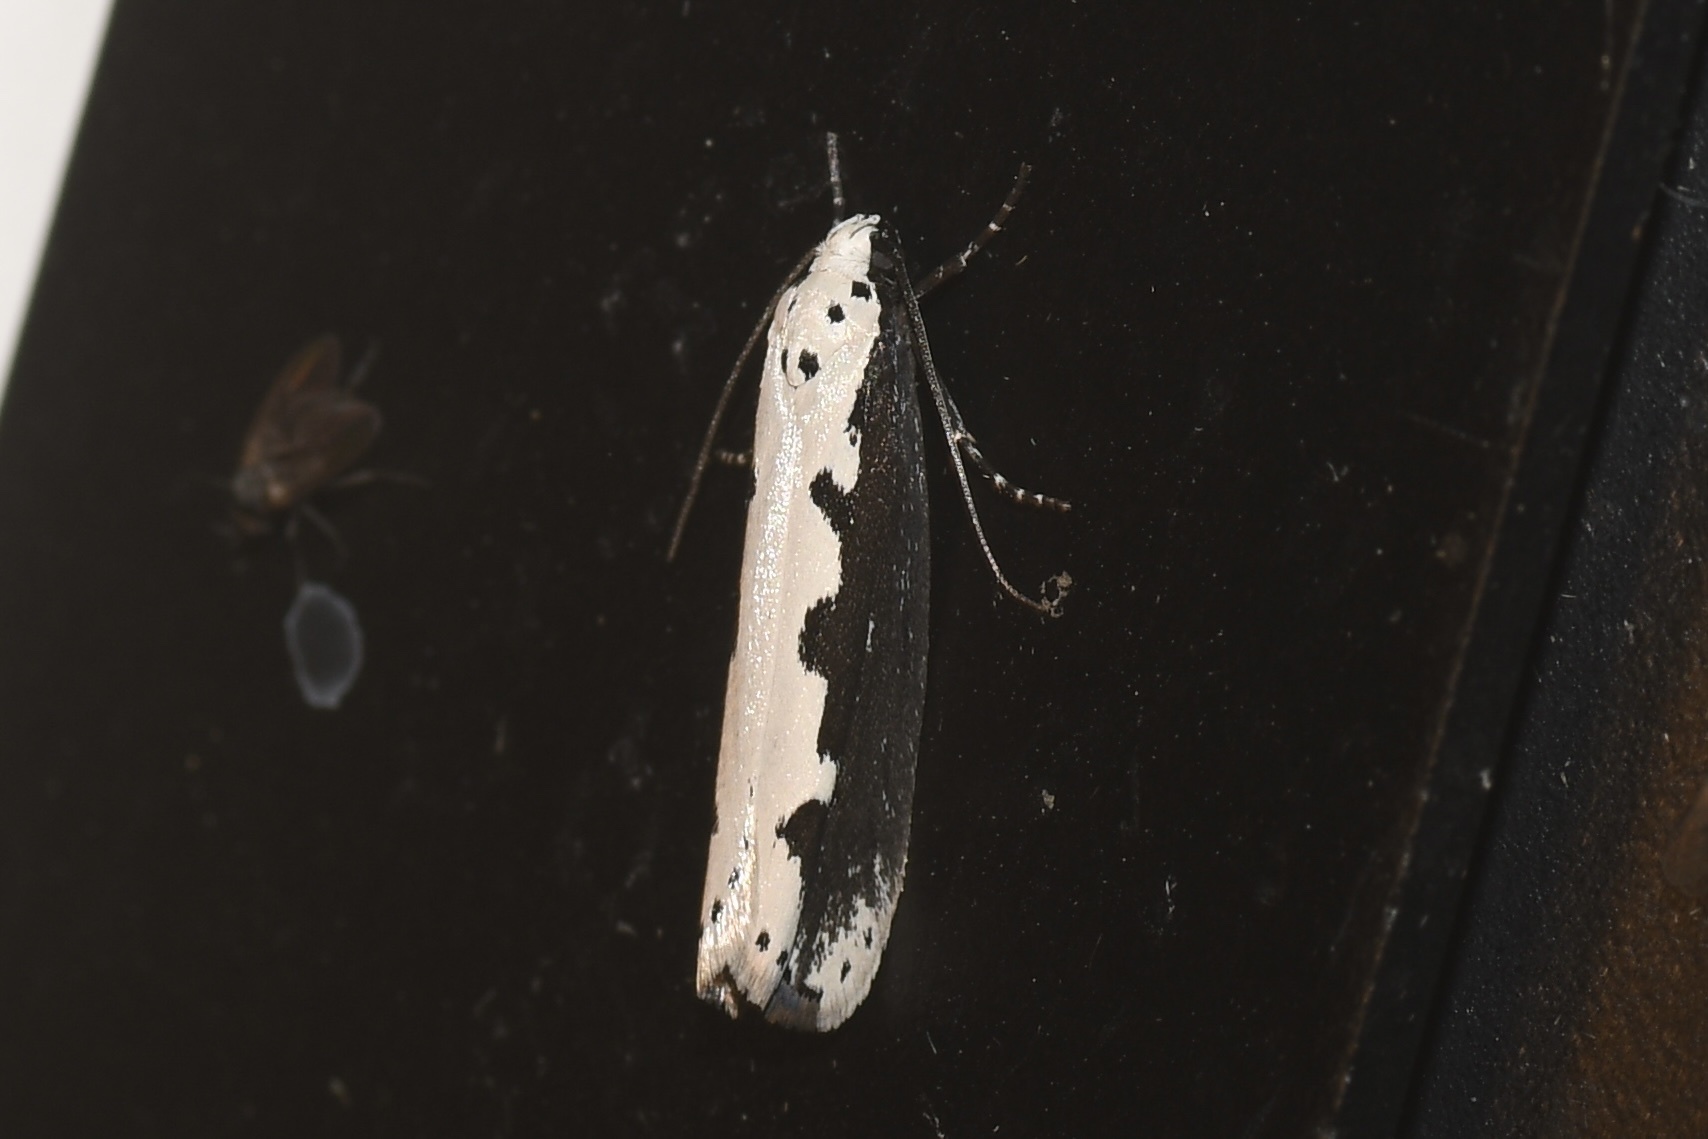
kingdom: Animalia
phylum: Arthropoda
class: Insecta
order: Lepidoptera
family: Ethmiidae
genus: Ethmia
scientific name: Ethmia bipunctella
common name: Bordered ermel
